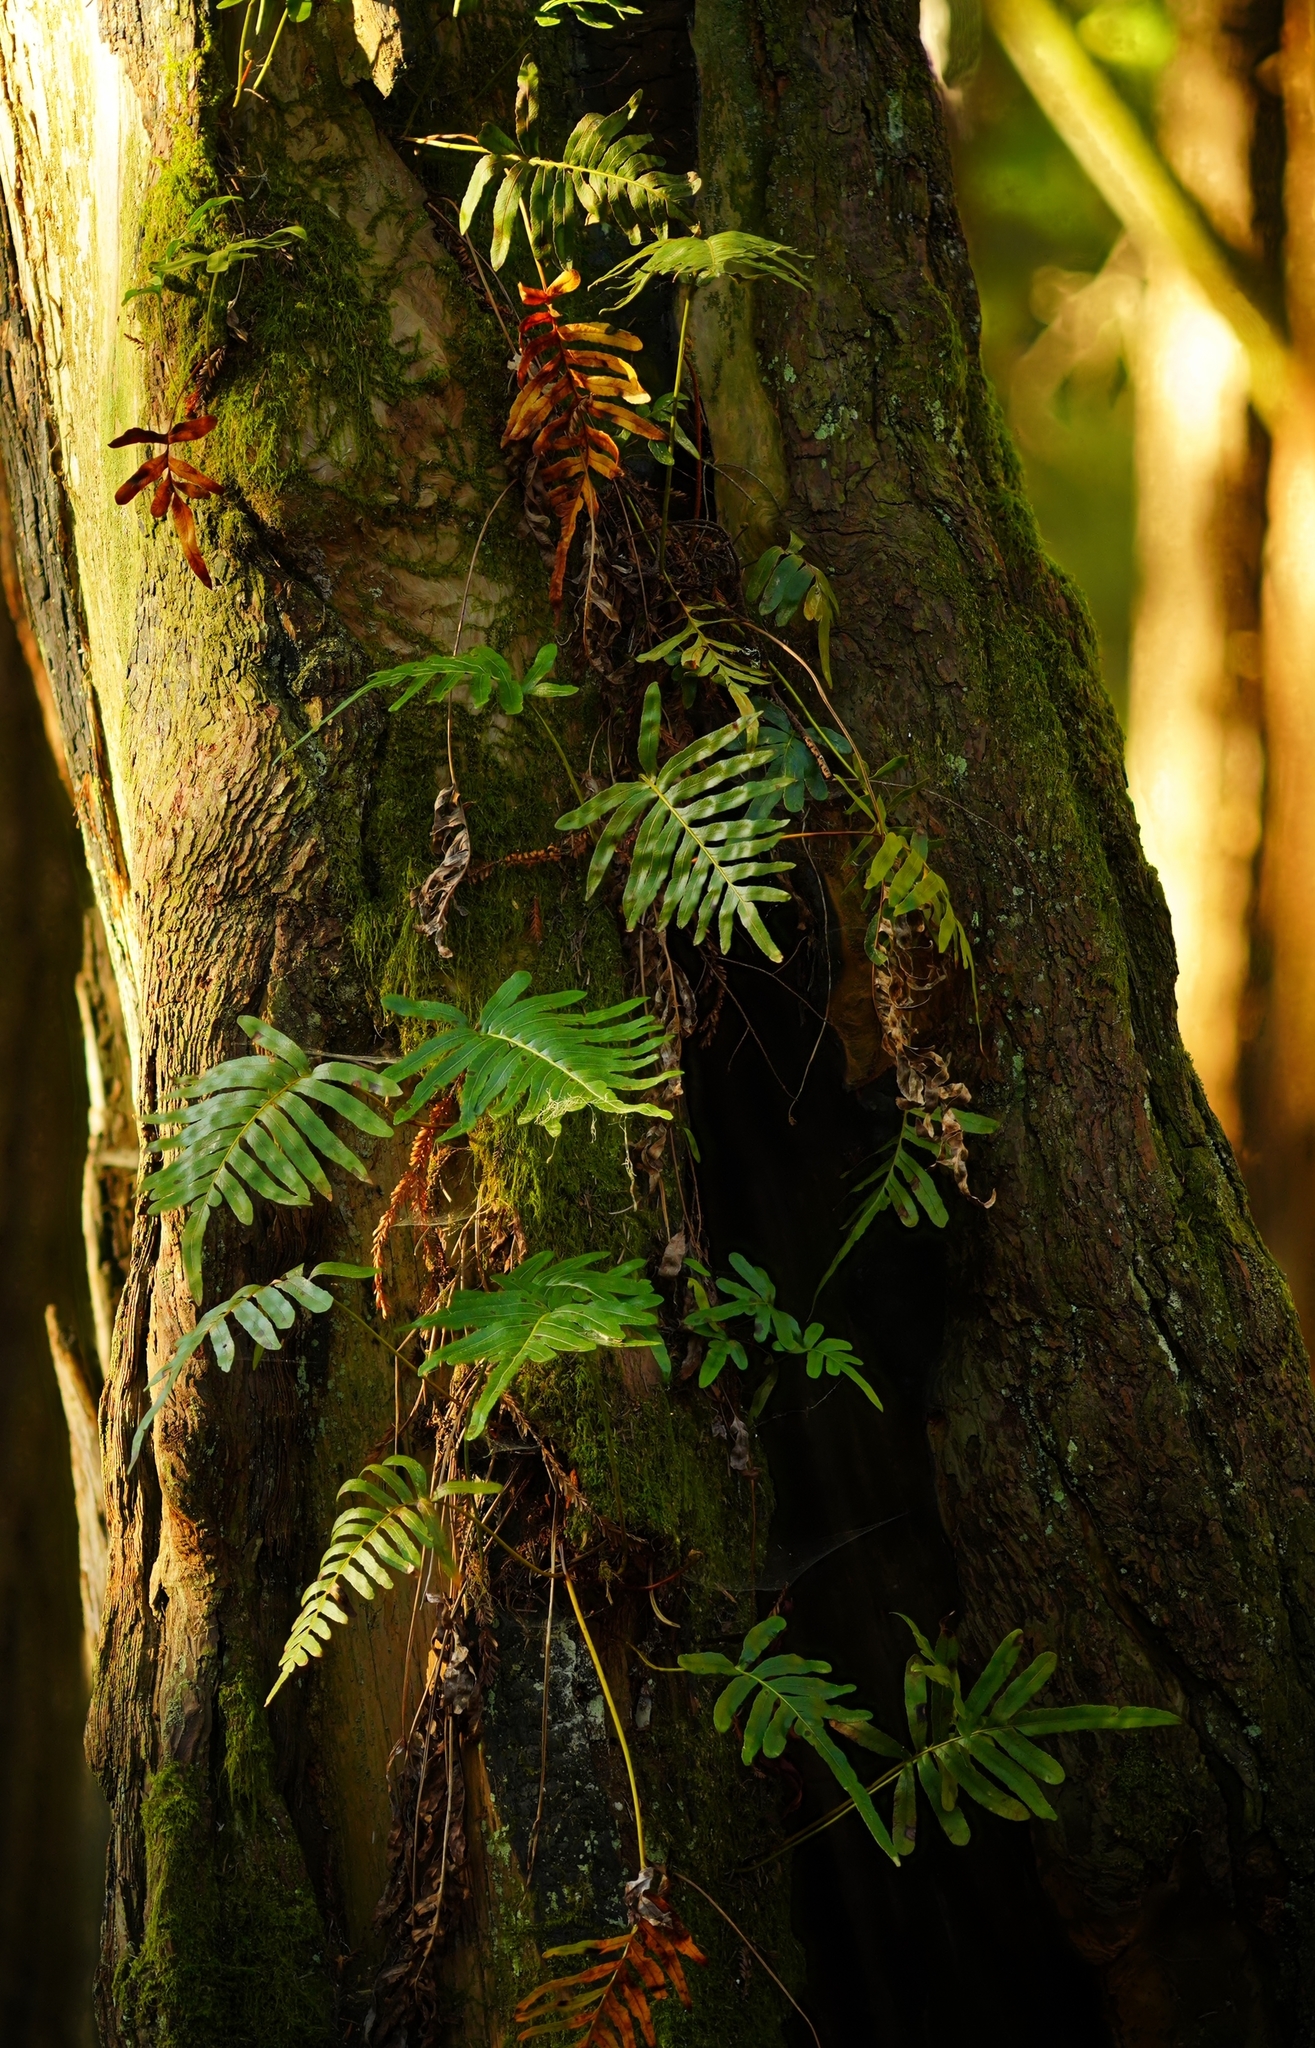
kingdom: Plantae
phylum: Tracheophyta
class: Polypodiopsida
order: Polypodiales
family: Polypodiaceae
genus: Polypodium
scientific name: Polypodium scouleri
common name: Scouler's polypody
